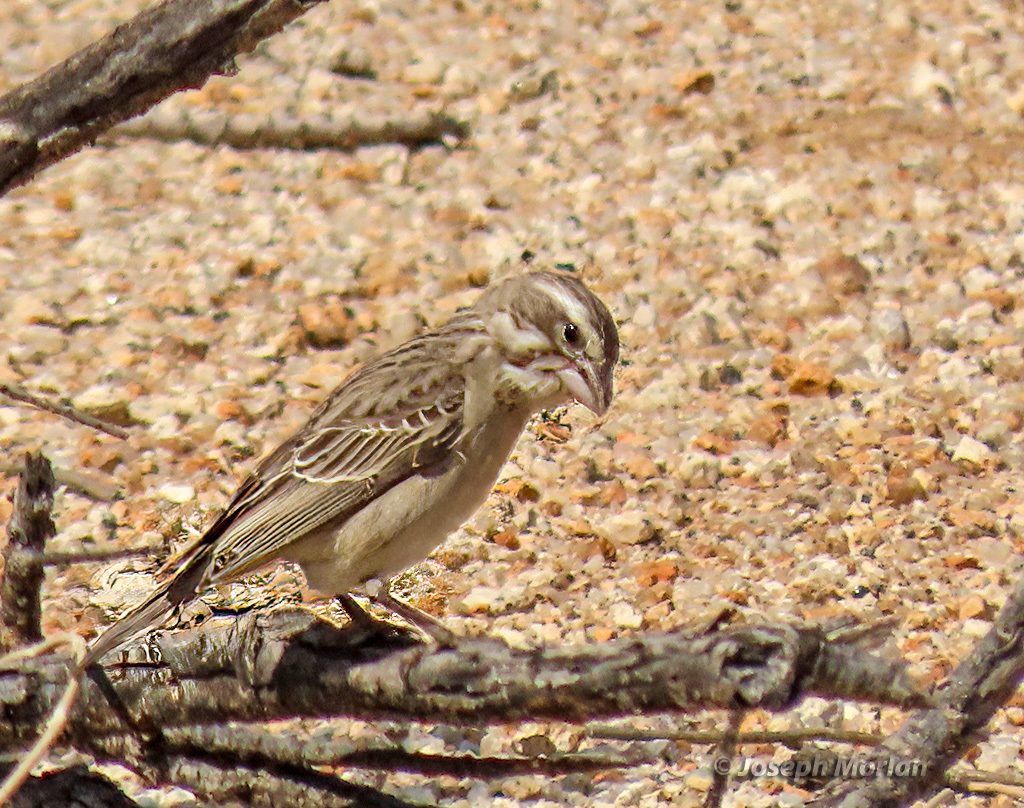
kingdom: Animalia
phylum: Chordata
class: Aves
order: Passeriformes
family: Fringillidae
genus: Crithagra
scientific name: Crithagra albogularis
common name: White-throated canary
